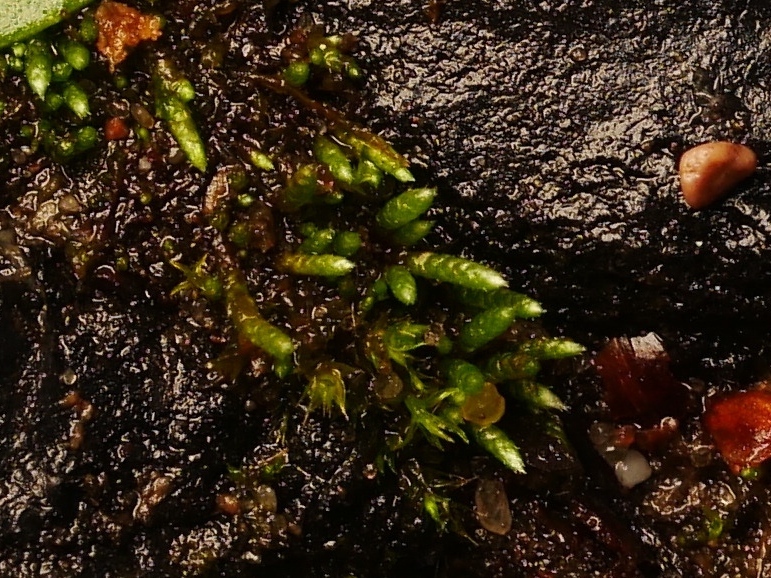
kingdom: Plantae
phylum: Bryophyta
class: Bryopsida
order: Bryales
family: Bryaceae
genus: Bryum
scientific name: Bryum argenteum
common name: Silver-moss
